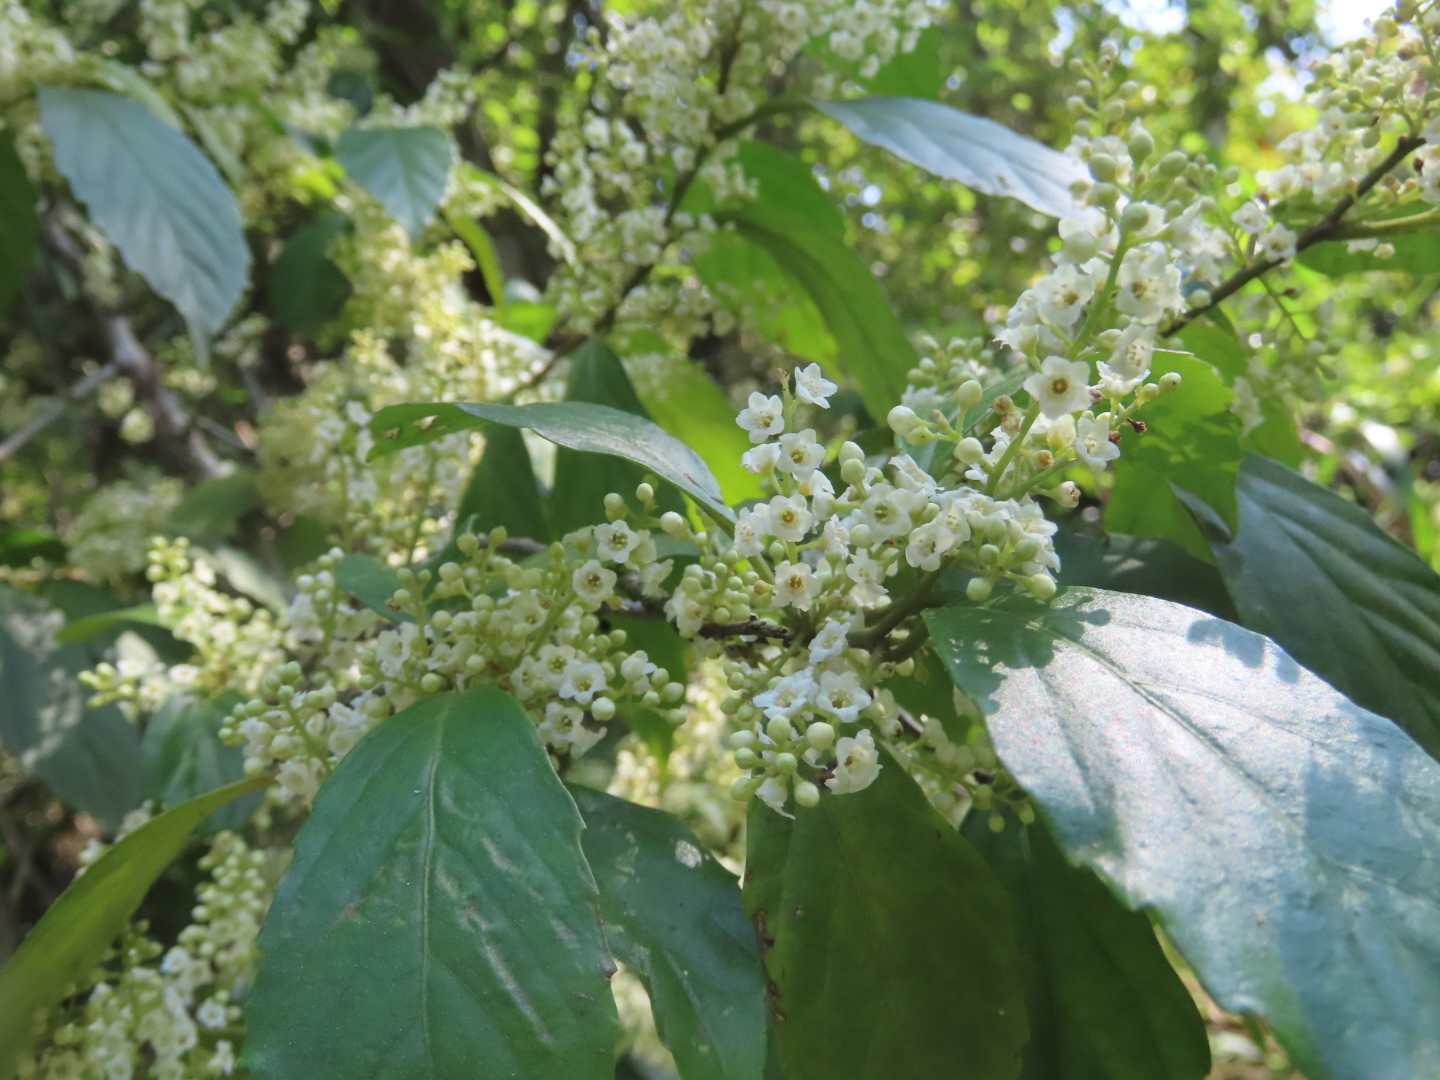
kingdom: Plantae
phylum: Tracheophyta
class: Magnoliopsida
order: Ericales
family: Primulaceae
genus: Maesa
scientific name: Maesa perlaria
